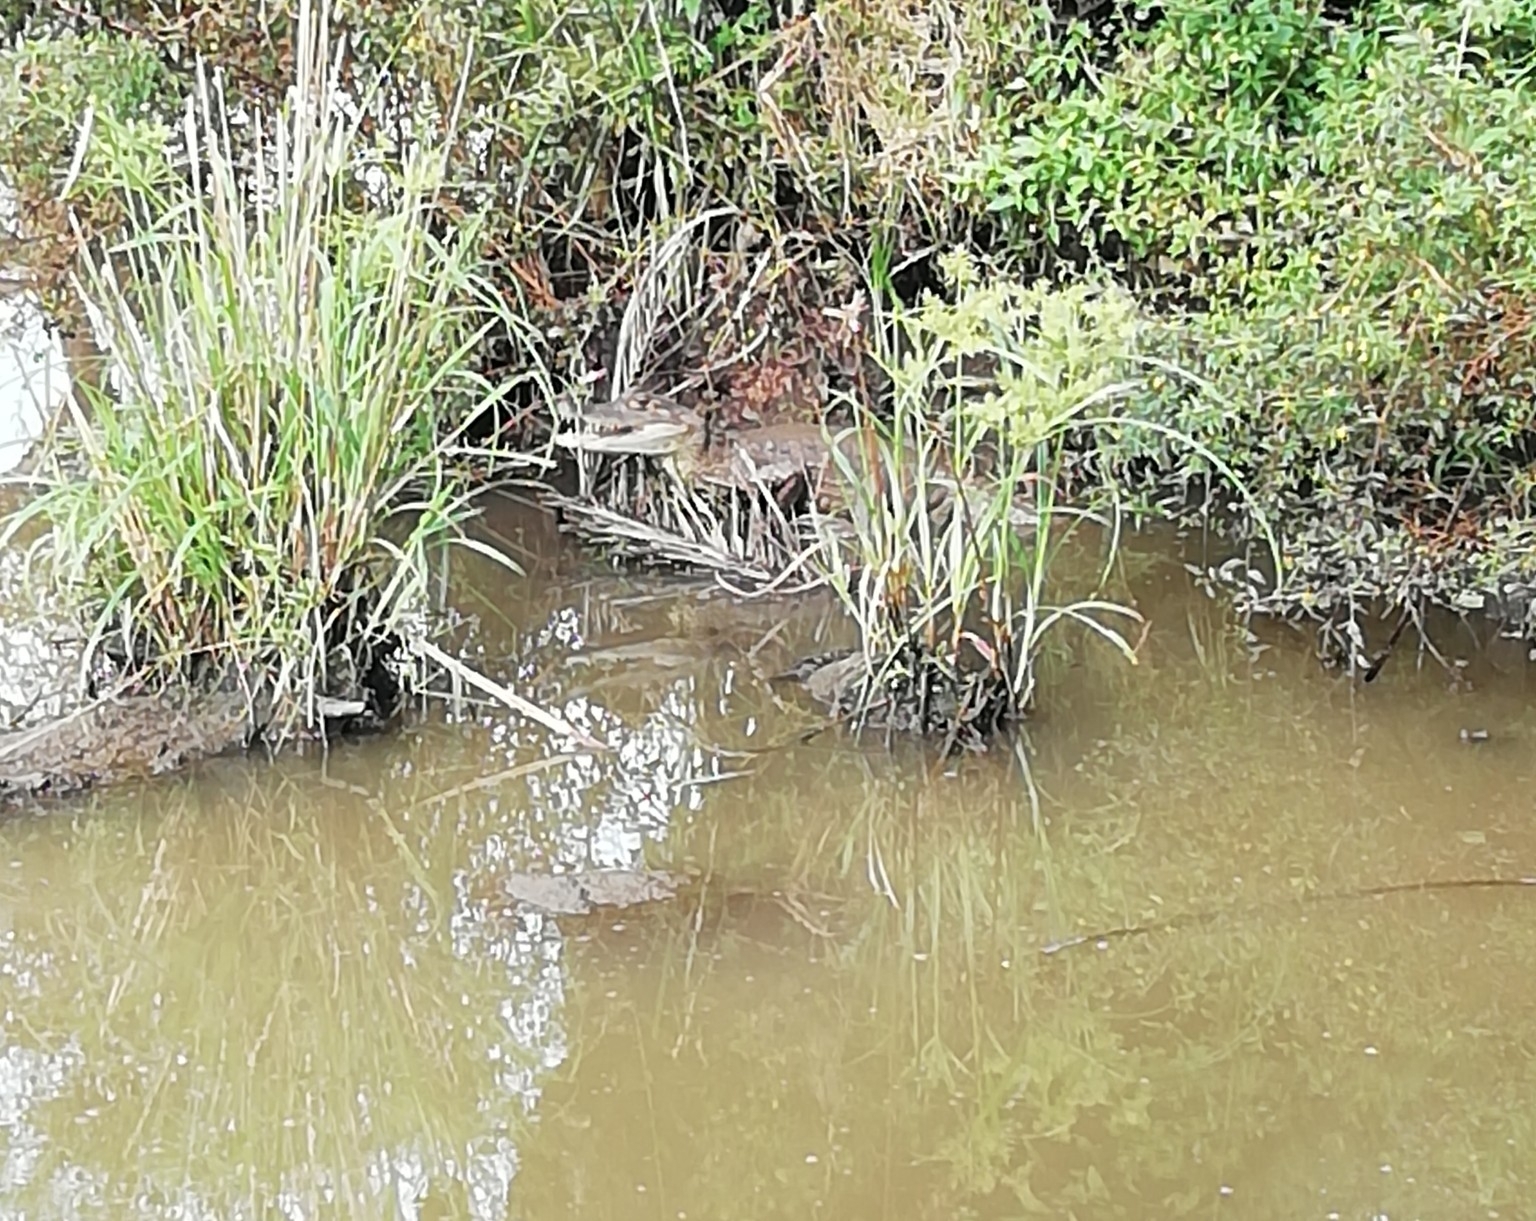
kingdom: Animalia
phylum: Chordata
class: Crocodylia
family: Alligatoridae
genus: Caiman
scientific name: Caiman crocodilus
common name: Common caiman
